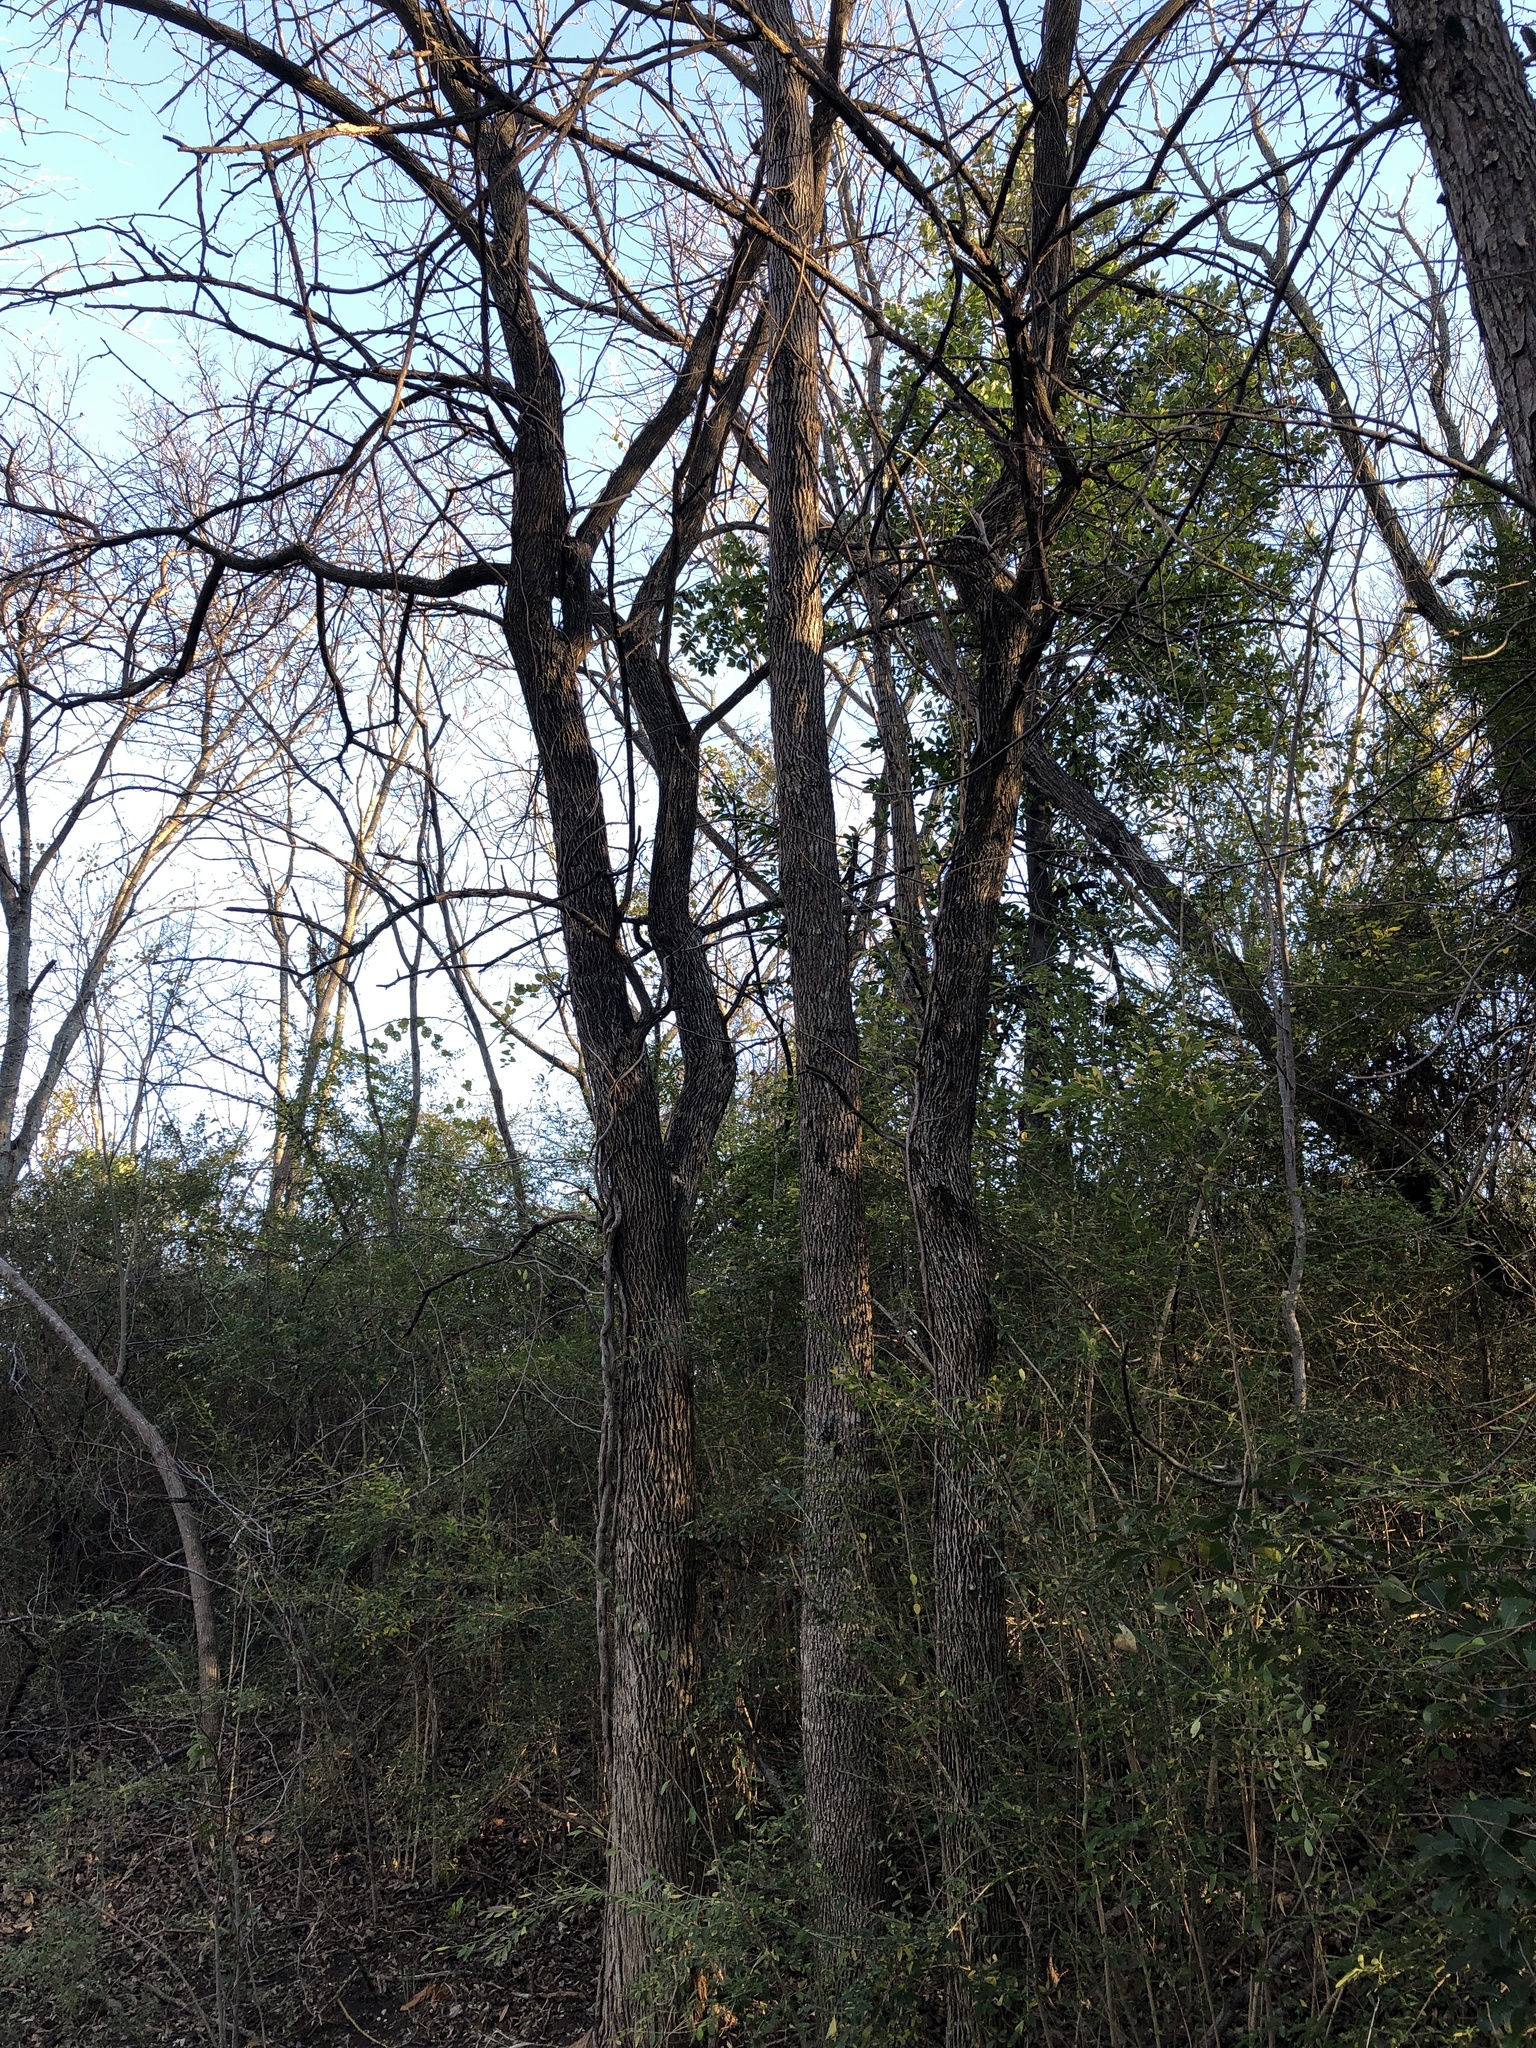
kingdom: Plantae
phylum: Tracheophyta
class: Magnoliopsida
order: Rosales
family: Moraceae
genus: Maclura
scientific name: Maclura pomifera
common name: Osage-orange
